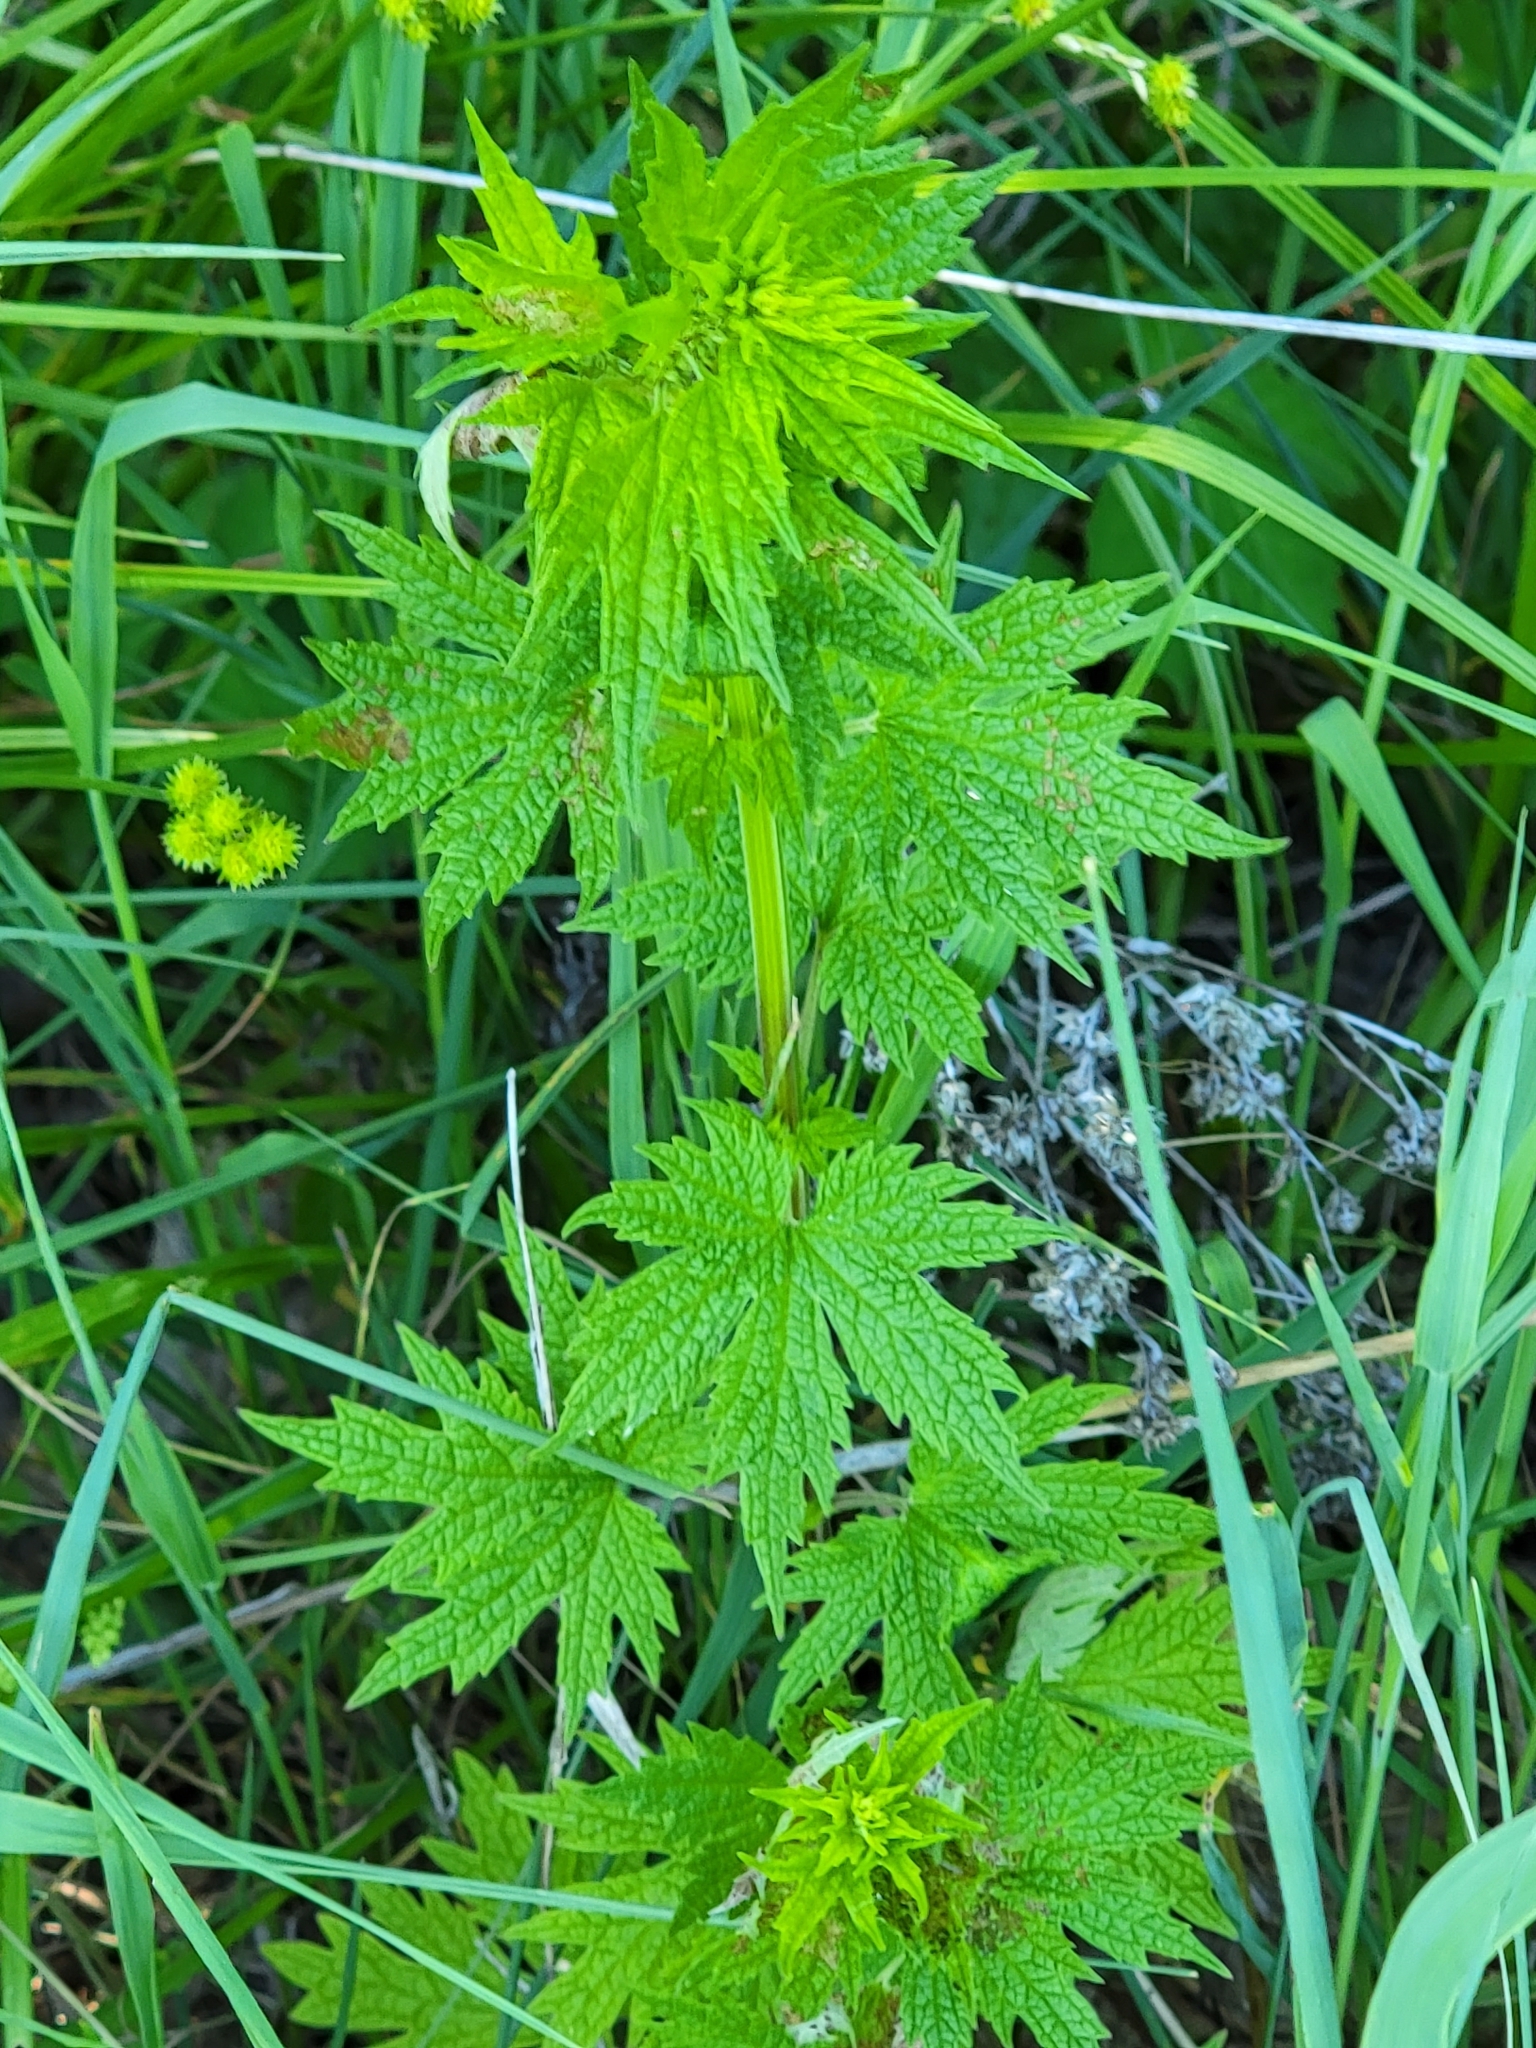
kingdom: Plantae
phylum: Tracheophyta
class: Magnoliopsida
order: Lamiales
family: Lamiaceae
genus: Leonurus
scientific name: Leonurus cardiaca
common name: Motherwort
